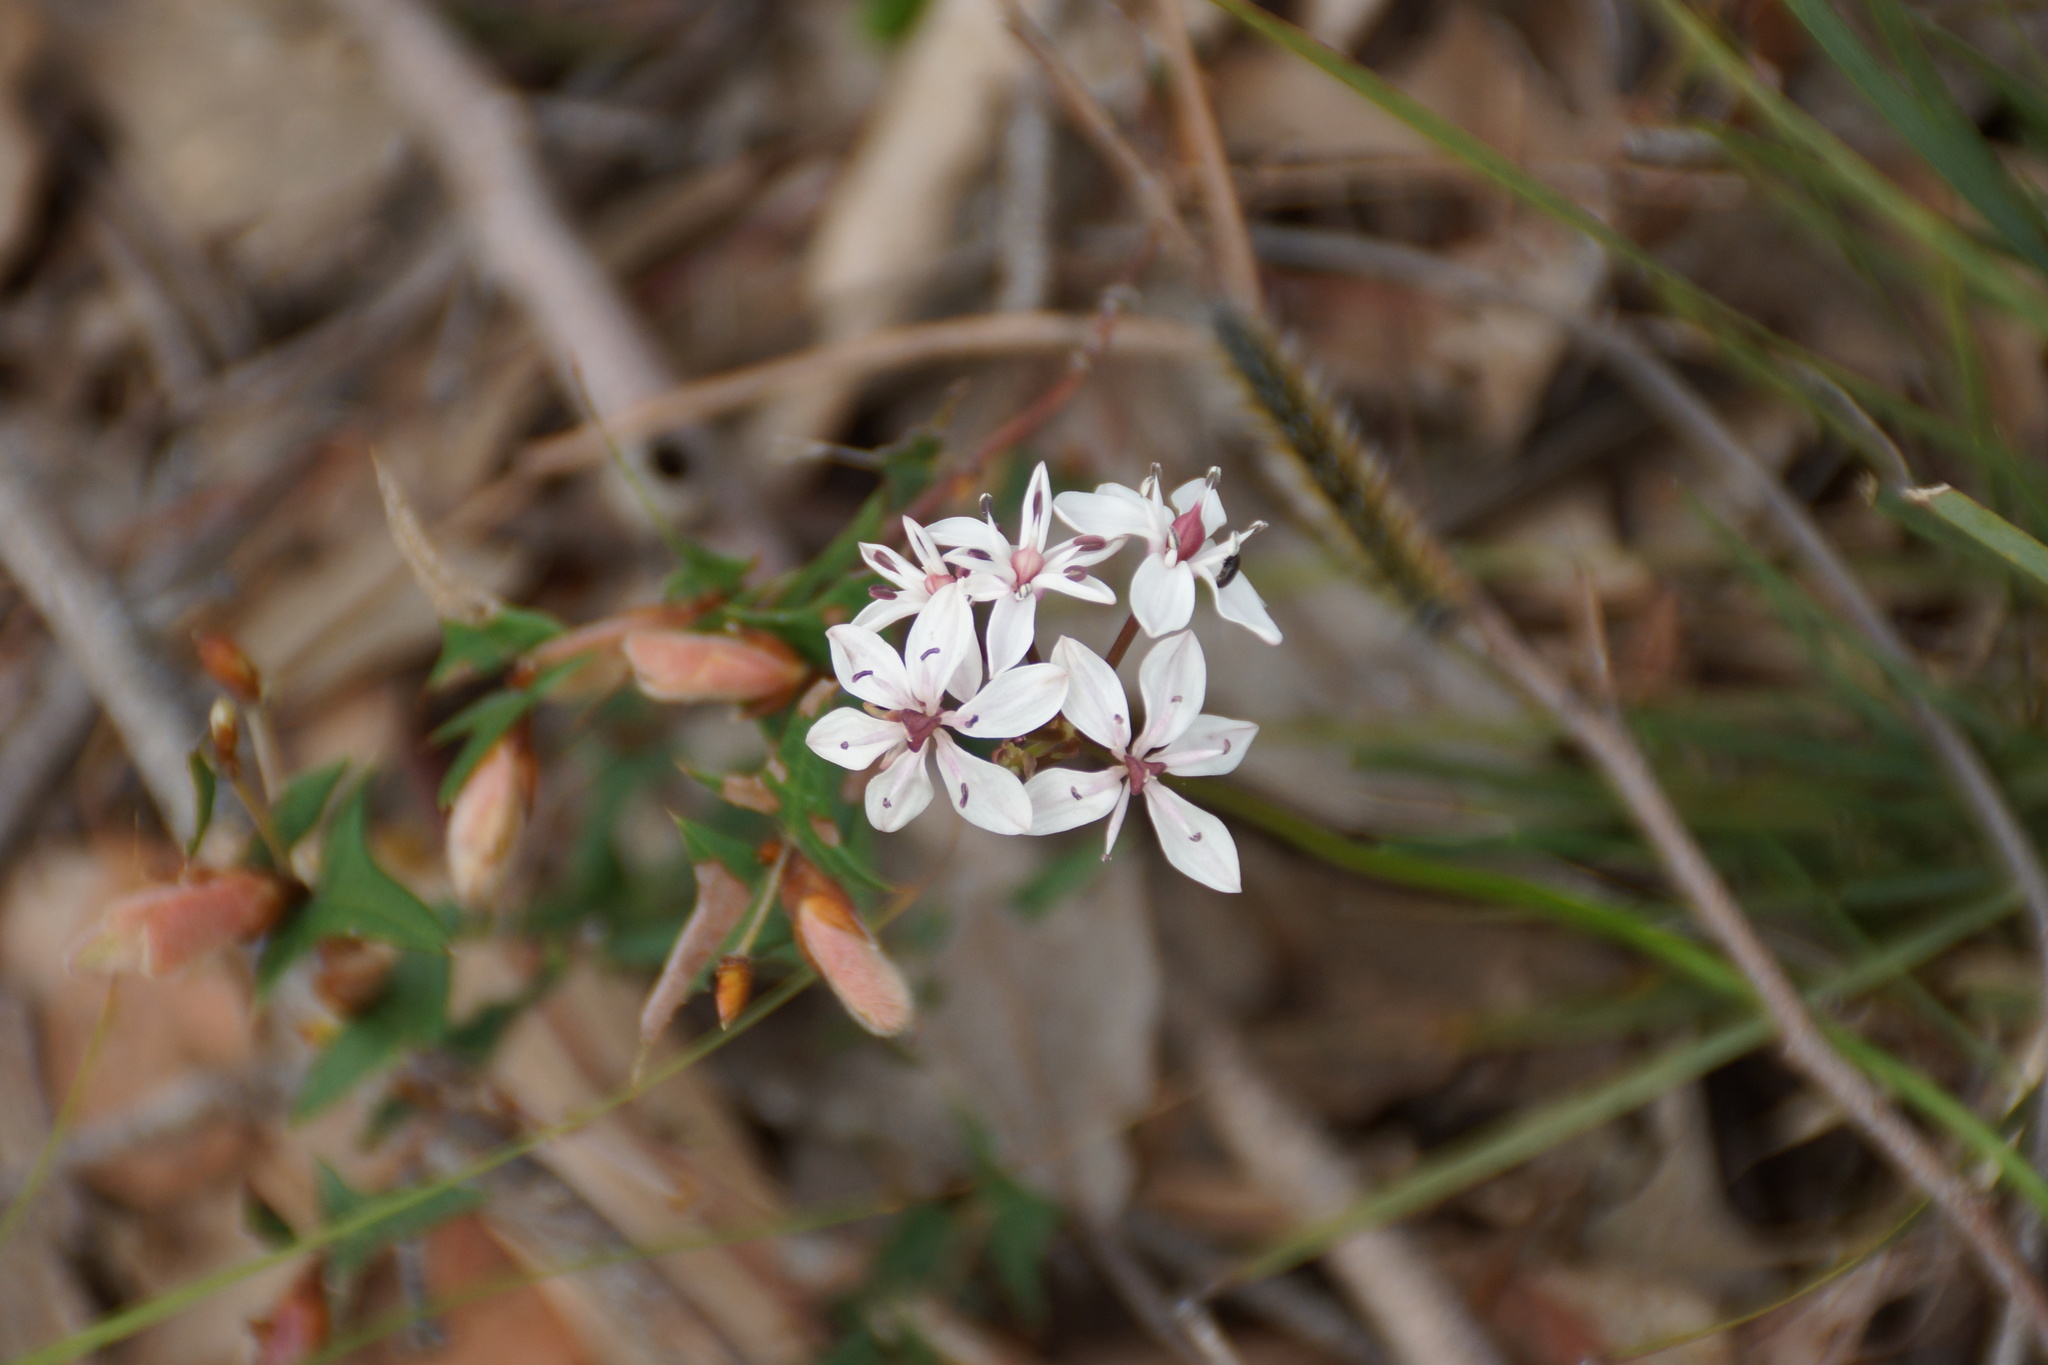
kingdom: Plantae
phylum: Tracheophyta
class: Liliopsida
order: Liliales
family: Colchicaceae
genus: Burchardia
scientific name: Burchardia umbellata
